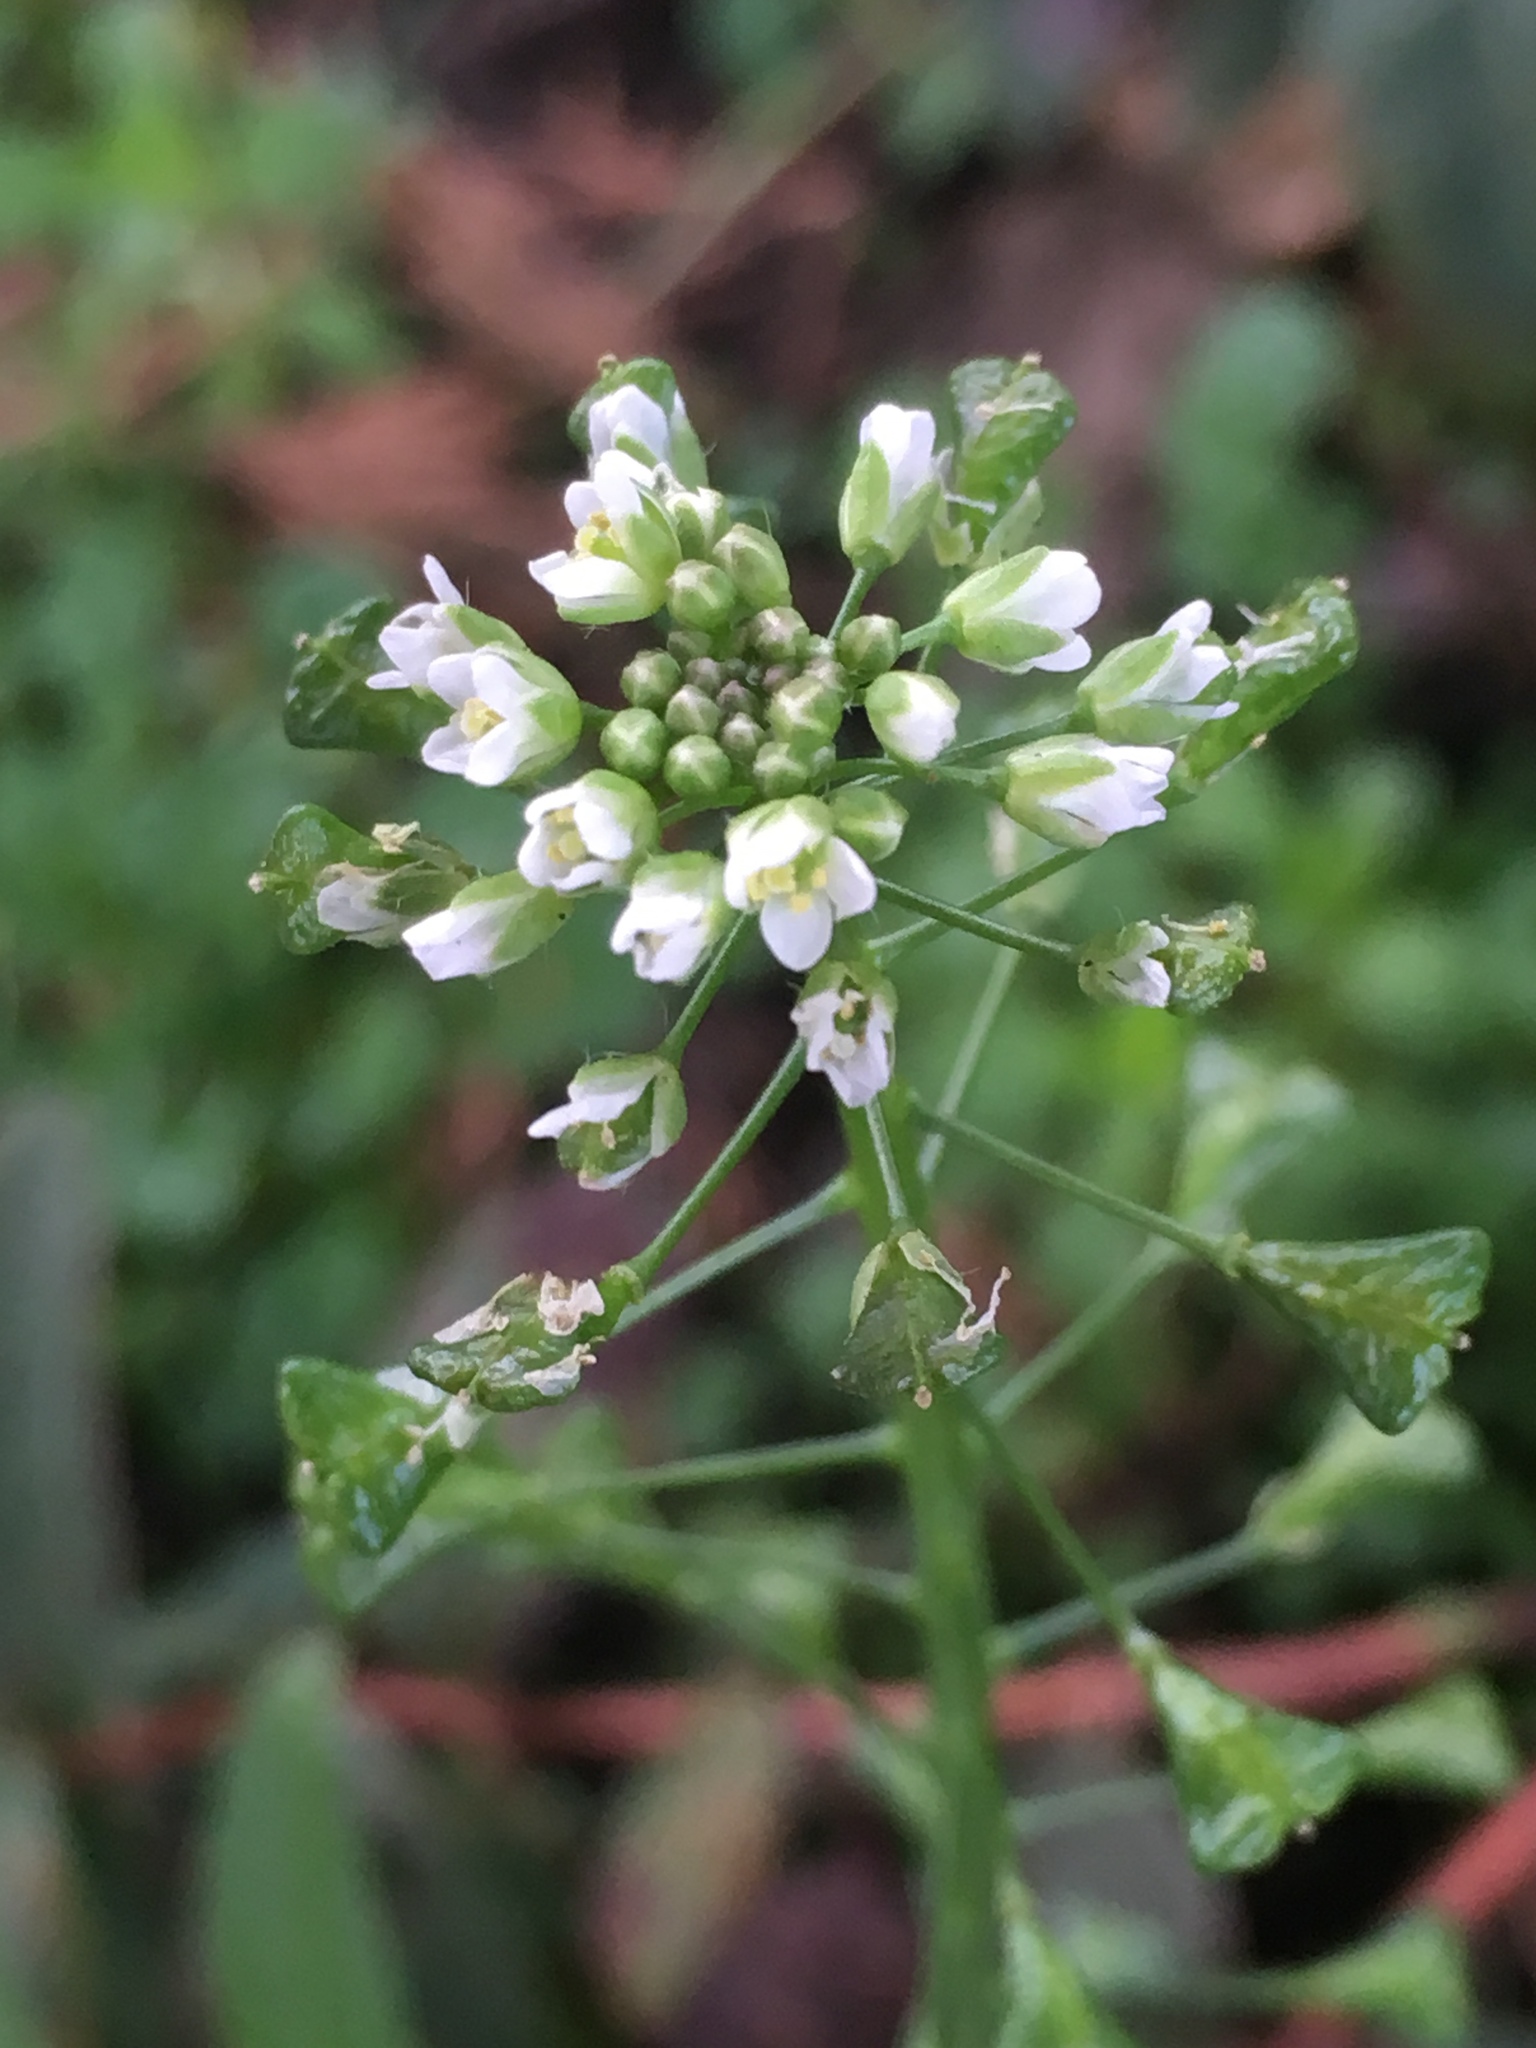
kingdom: Plantae
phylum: Tracheophyta
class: Magnoliopsida
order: Brassicales
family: Brassicaceae
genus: Capsella
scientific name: Capsella bursa-pastoris
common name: Shepherd's purse
